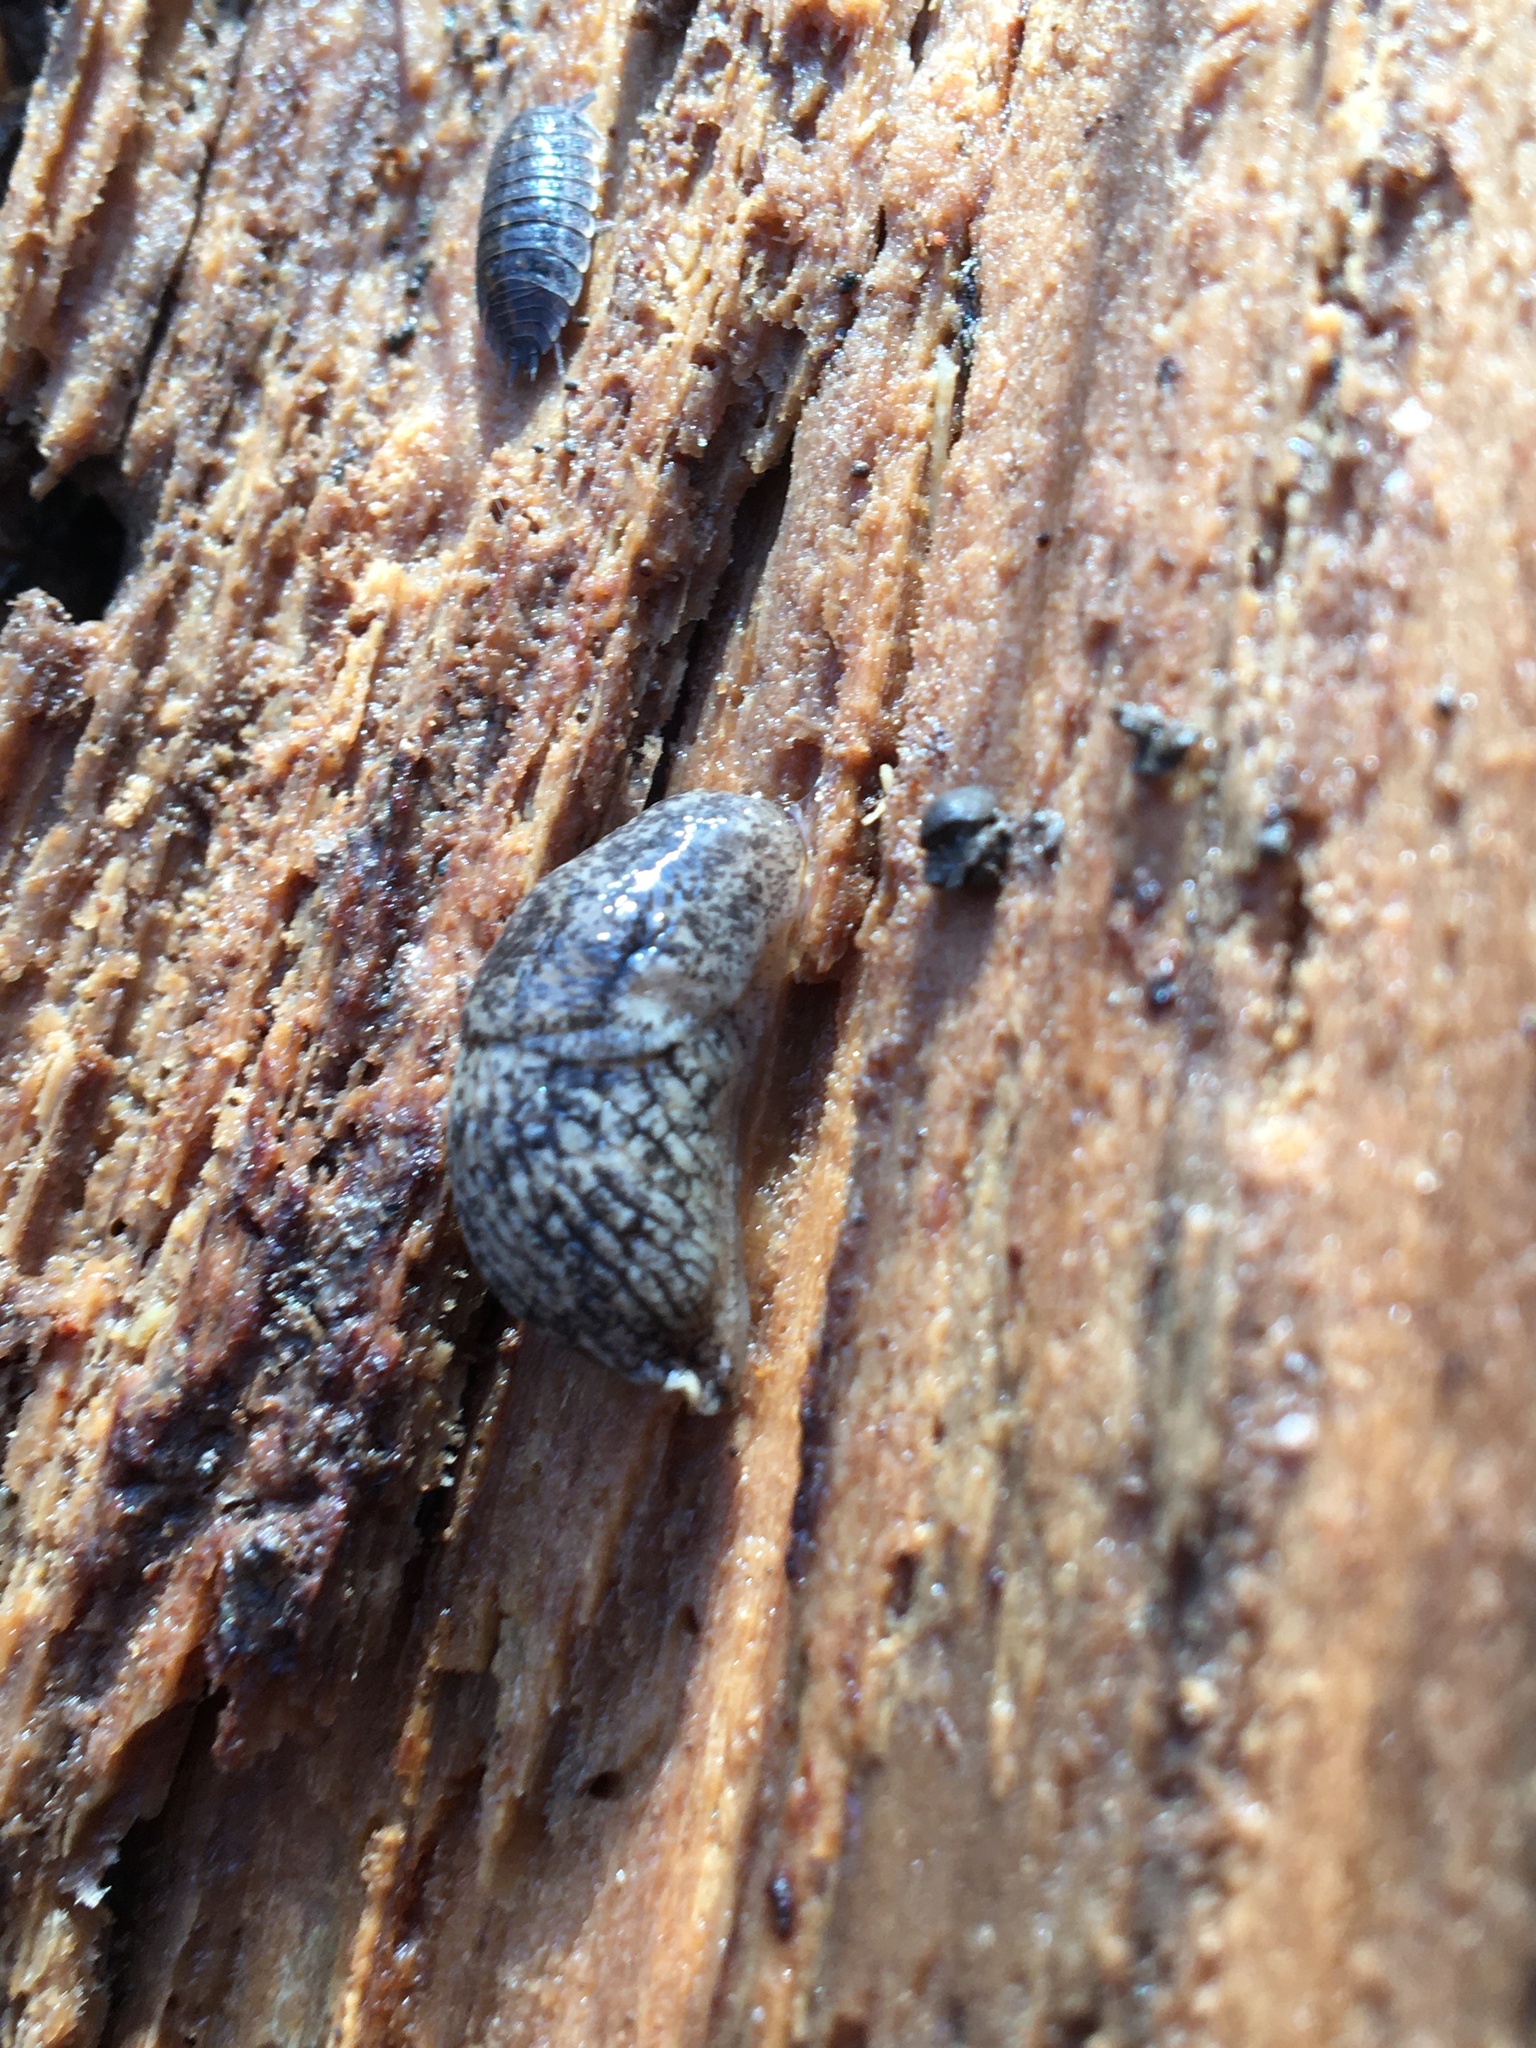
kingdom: Animalia
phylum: Mollusca
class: Gastropoda
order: Stylommatophora
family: Agriolimacidae
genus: Deroceras
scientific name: Deroceras reticulatum
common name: Gray field slug
